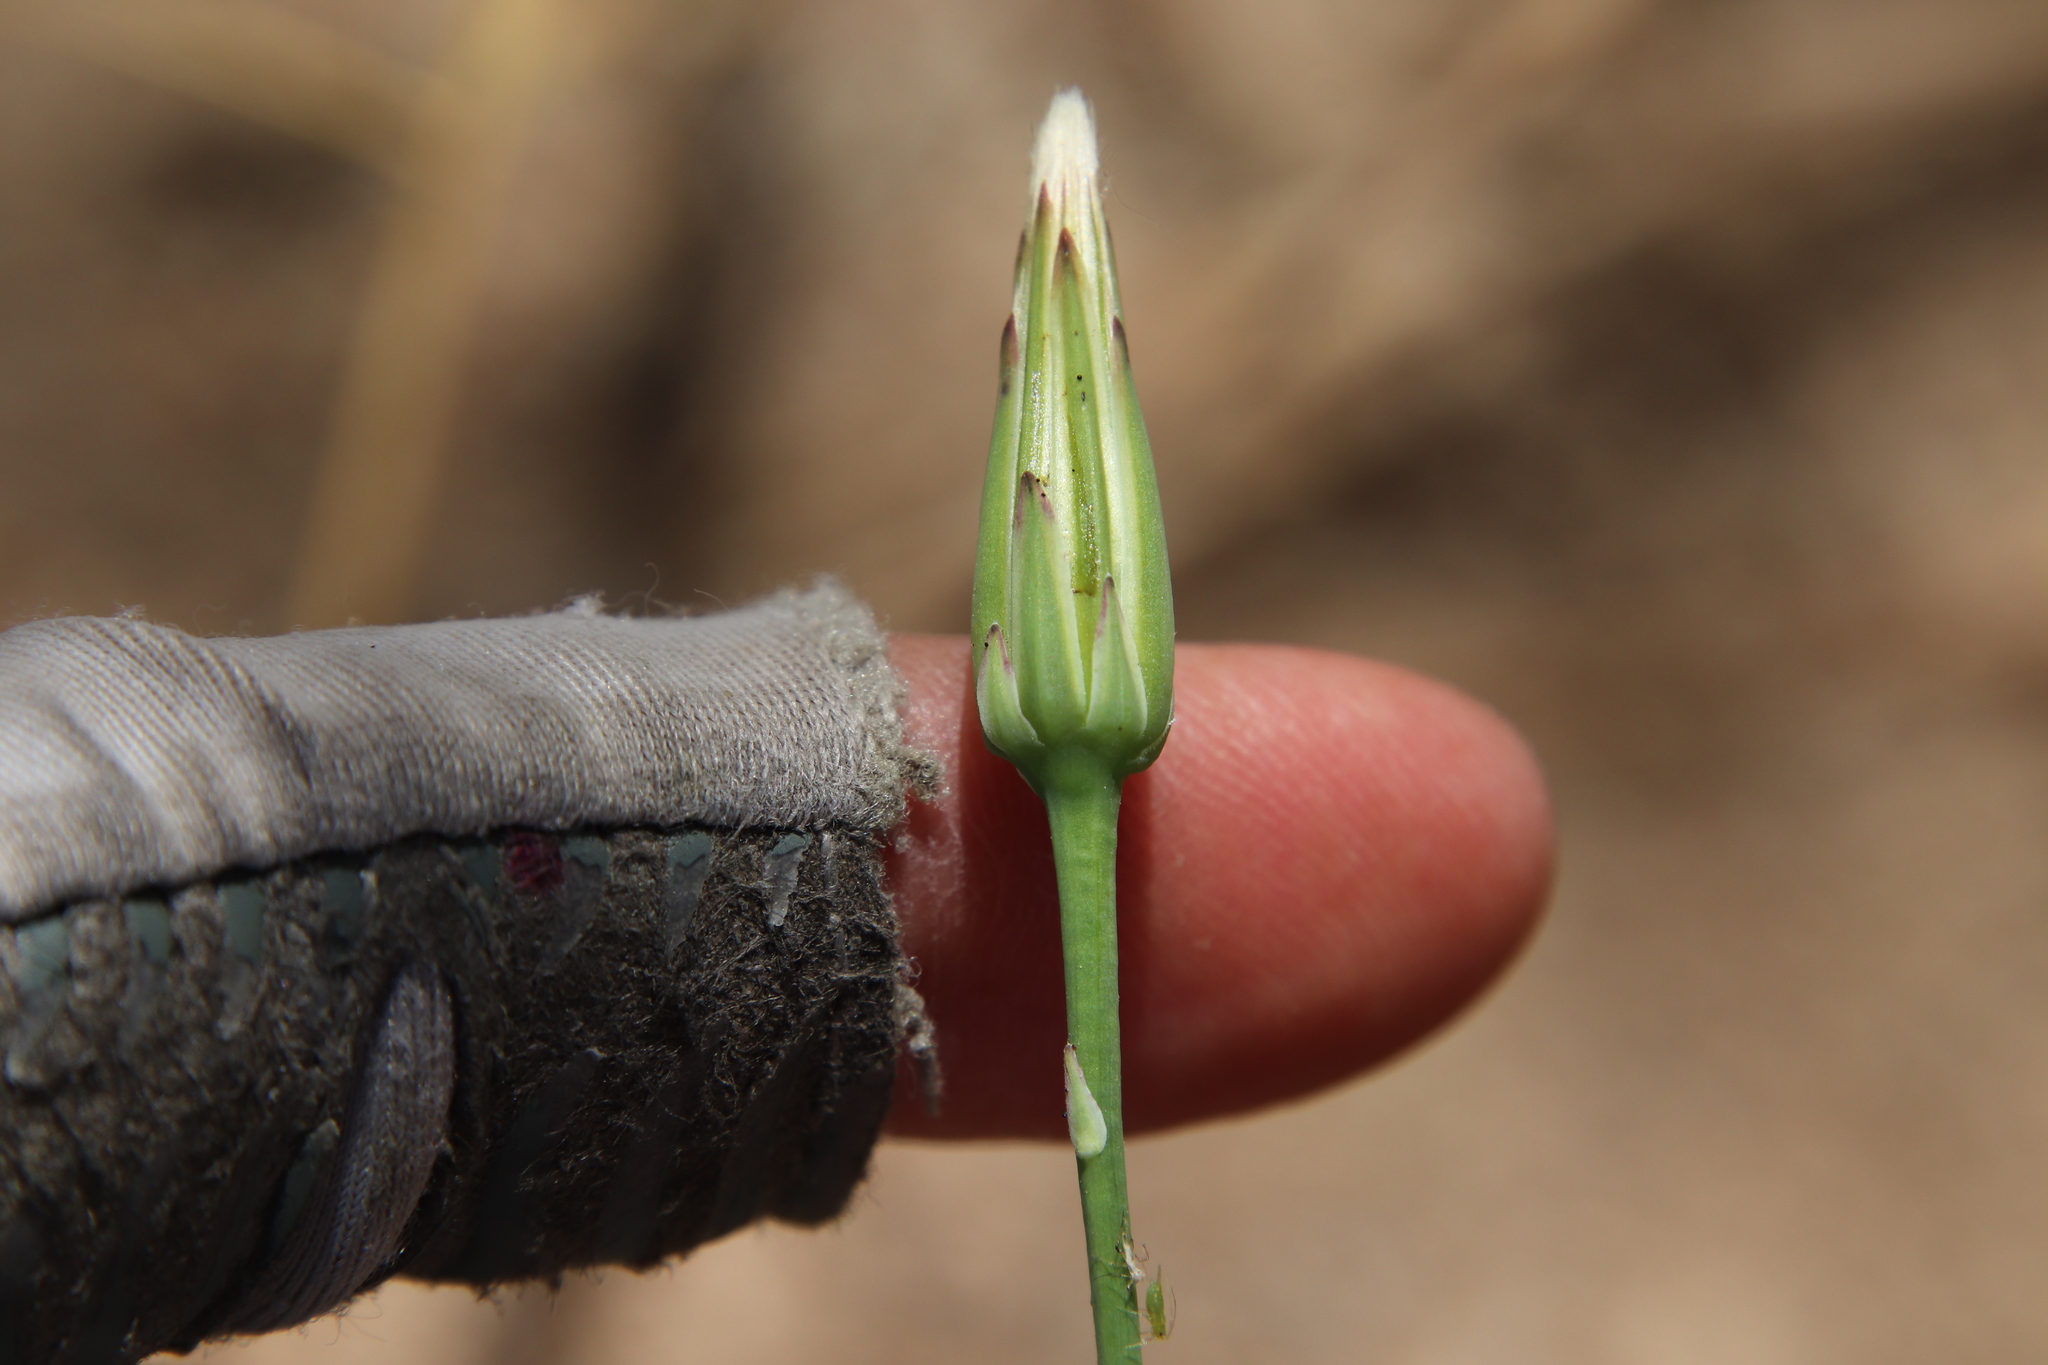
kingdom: Plantae
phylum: Tracheophyta
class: Magnoliopsida
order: Asterales
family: Asteraceae
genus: Hypochaeris
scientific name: Hypochaeris glabra
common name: Smooth catsear
